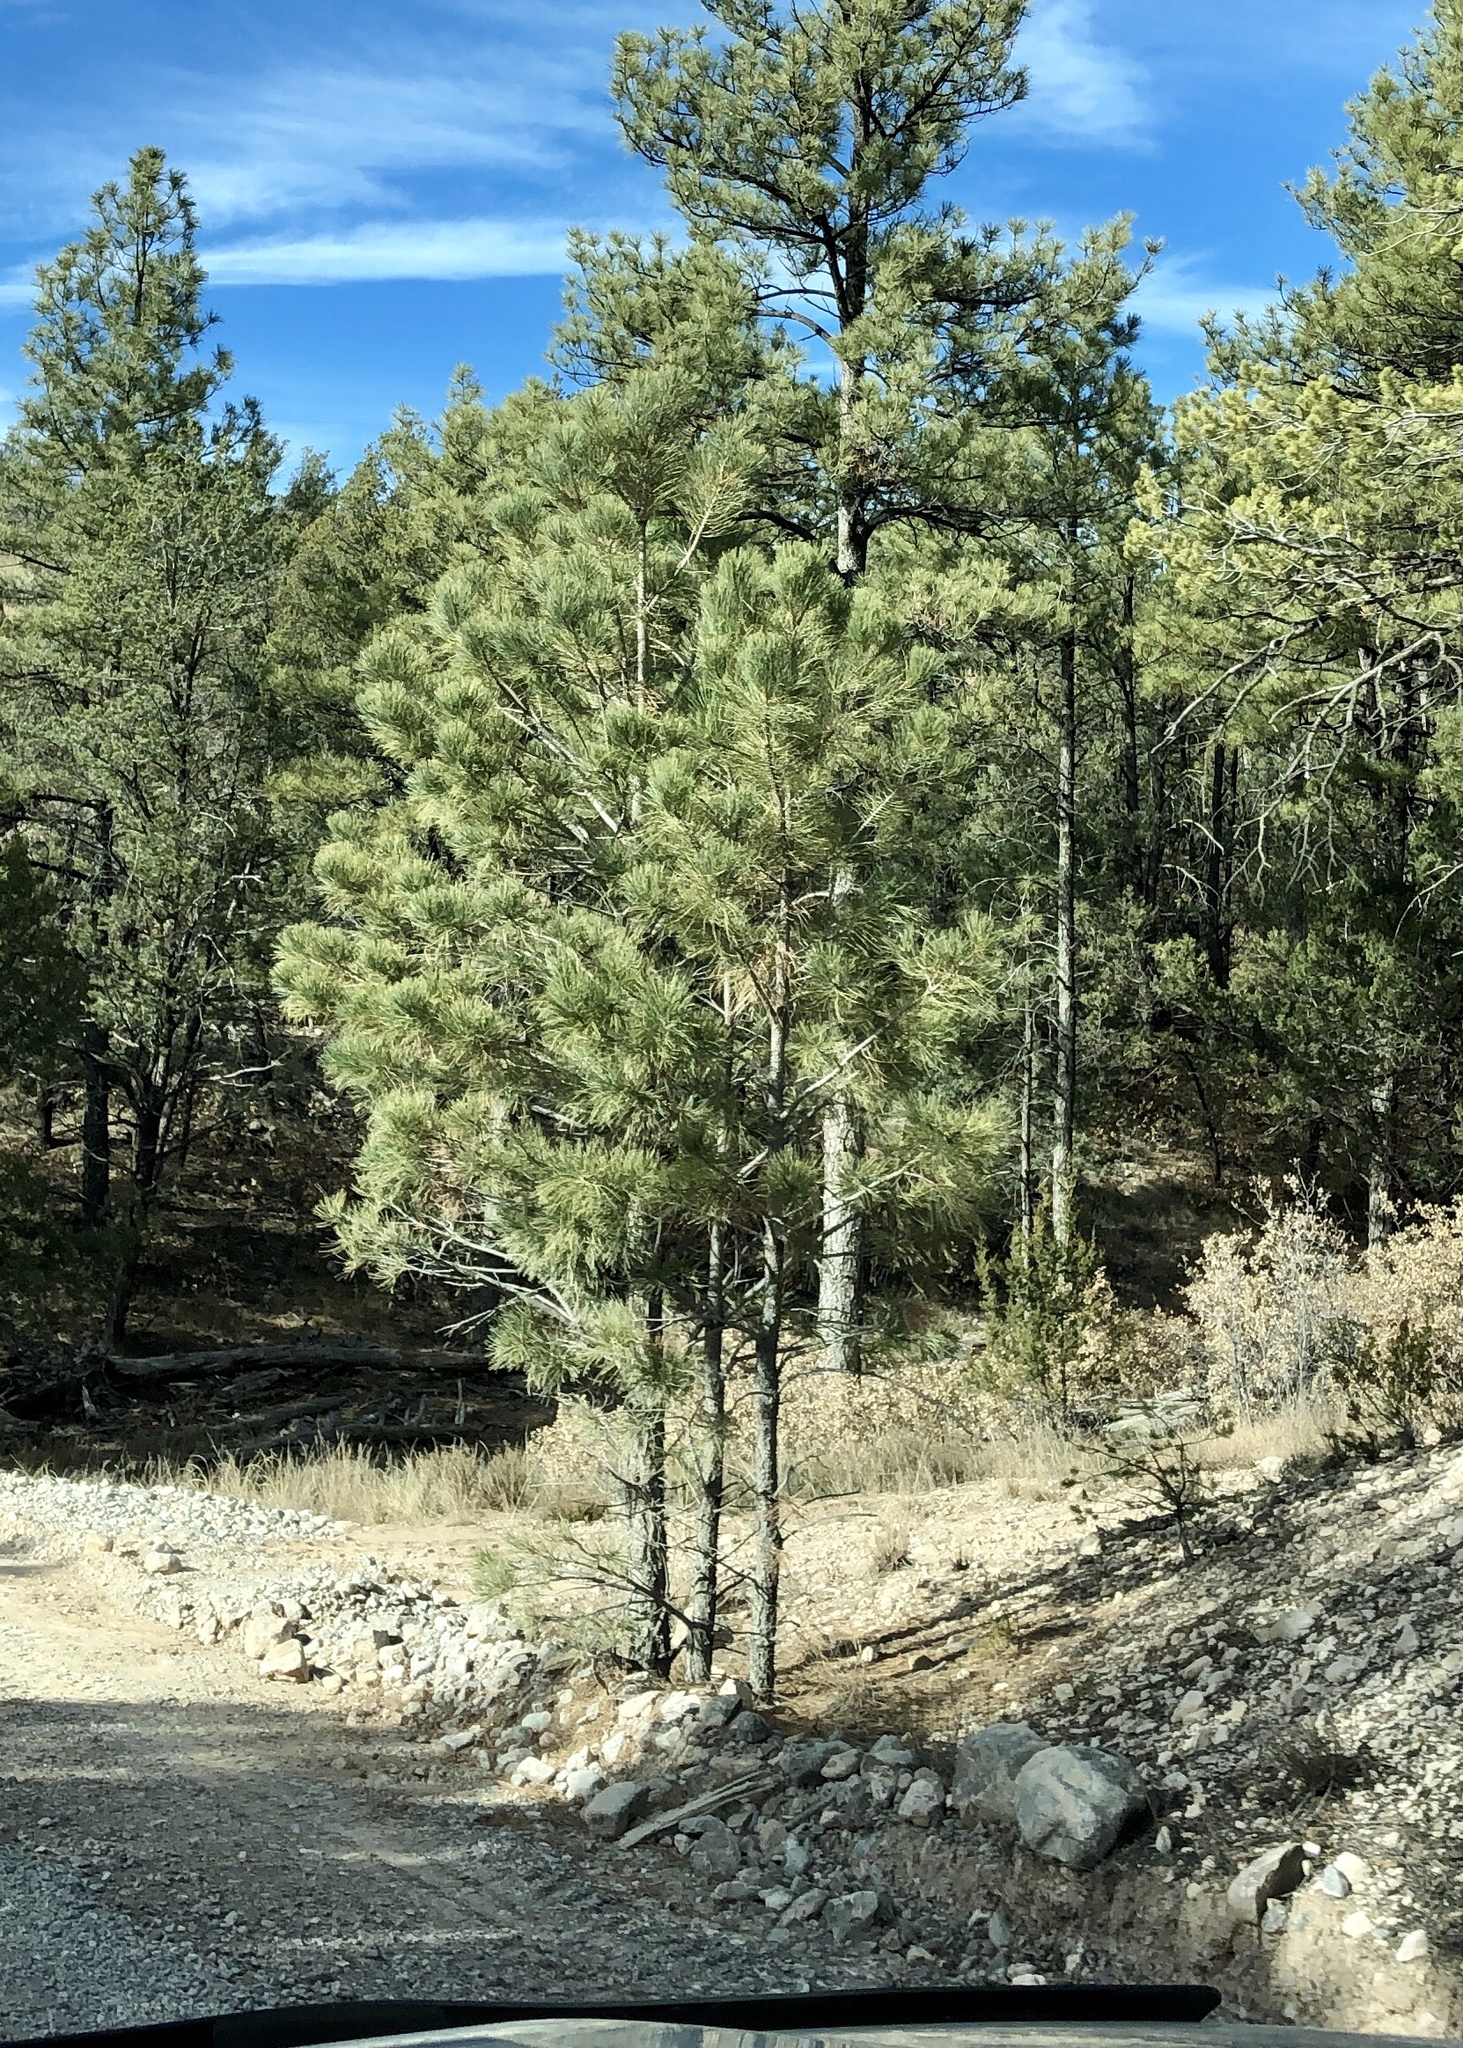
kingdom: Plantae
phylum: Tracheophyta
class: Pinopsida
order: Pinales
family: Pinaceae
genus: Pinus
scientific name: Pinus ponderosa
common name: Western yellow-pine
